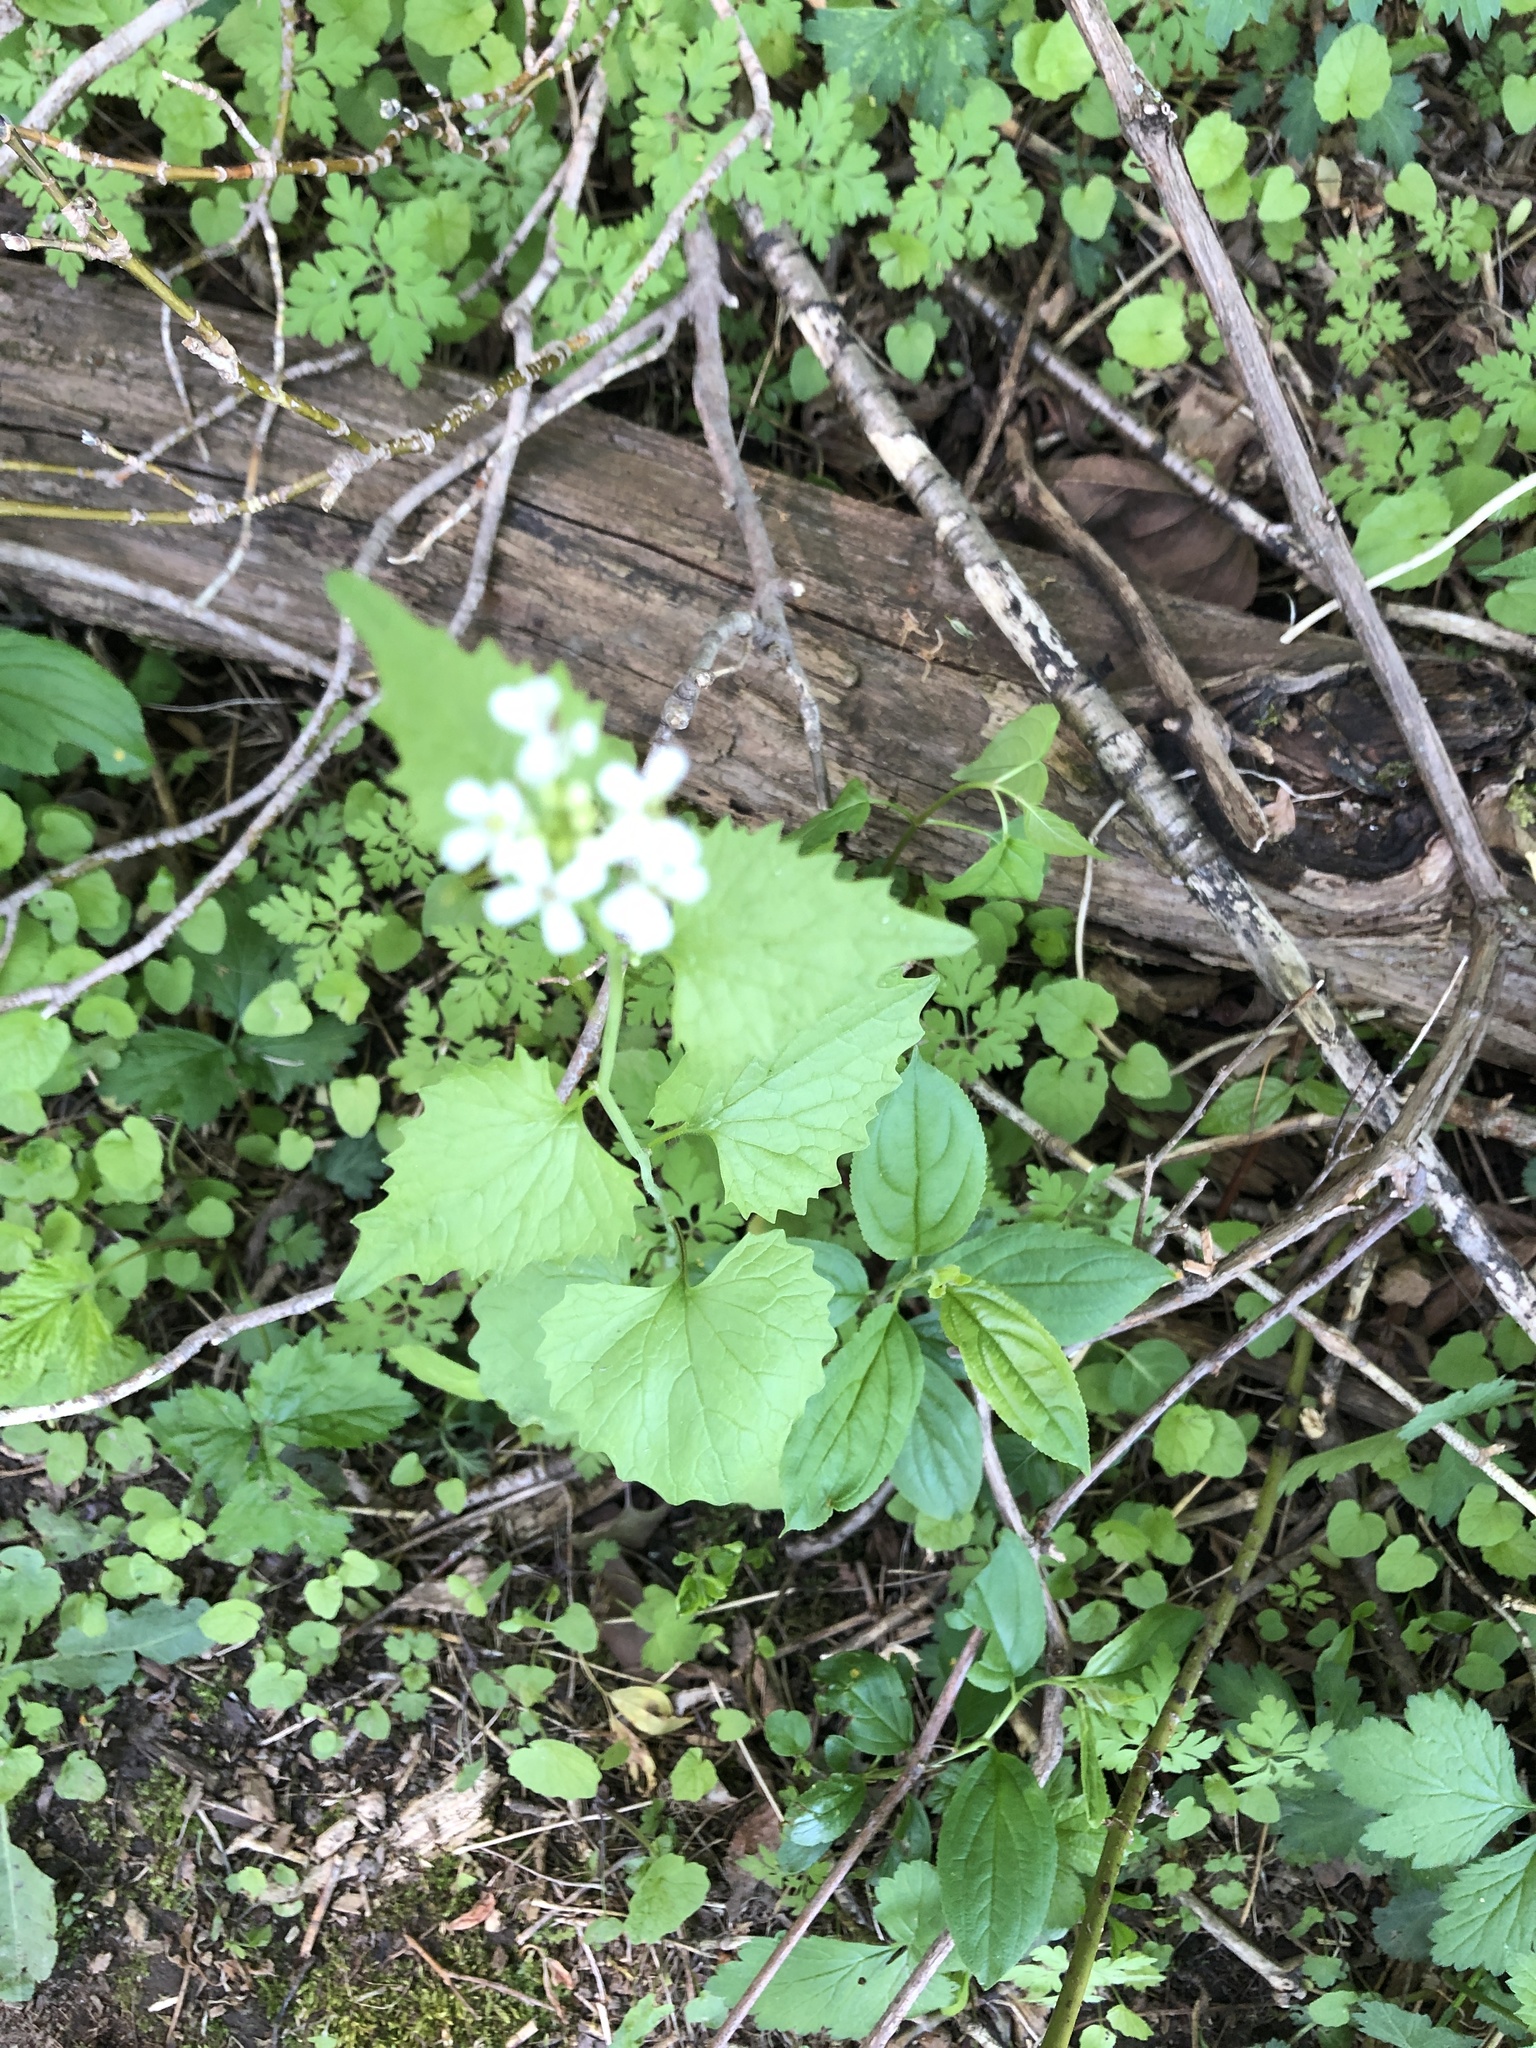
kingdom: Plantae
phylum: Tracheophyta
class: Magnoliopsida
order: Brassicales
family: Brassicaceae
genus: Alliaria
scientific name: Alliaria petiolata
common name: Garlic mustard
